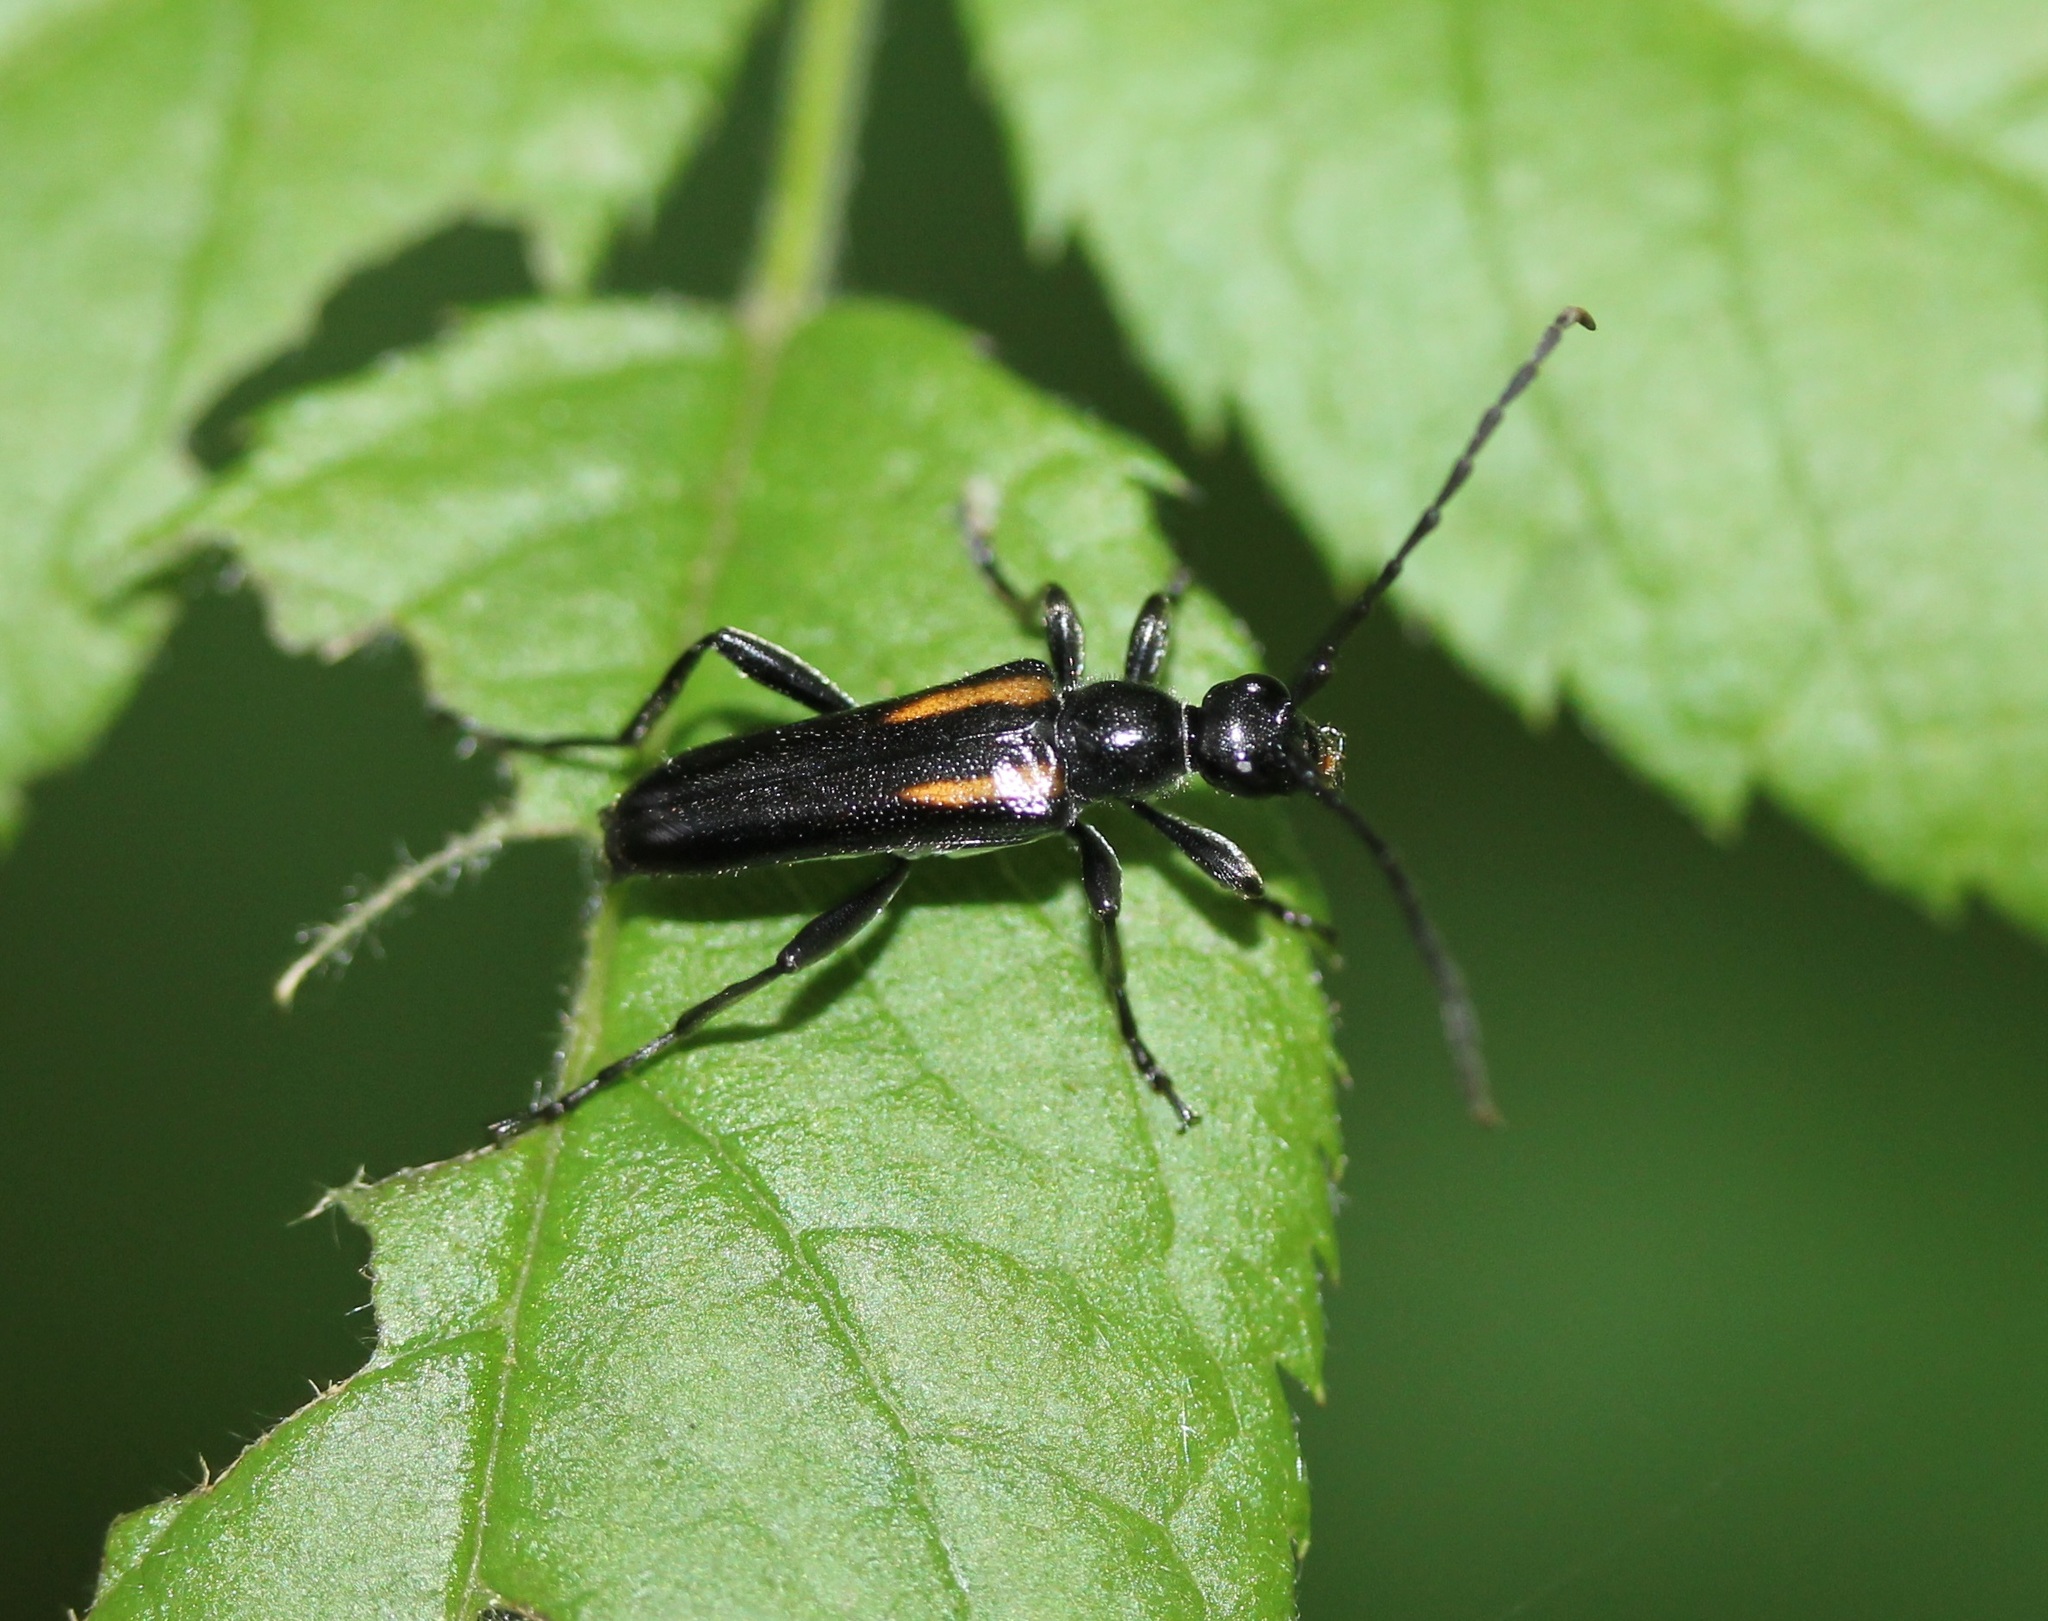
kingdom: Animalia
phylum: Arthropoda
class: Insecta
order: Coleoptera
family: Cerambycidae
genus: Strangalepta
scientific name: Strangalepta abbreviata
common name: Strangalepta flower longhorn beetle
